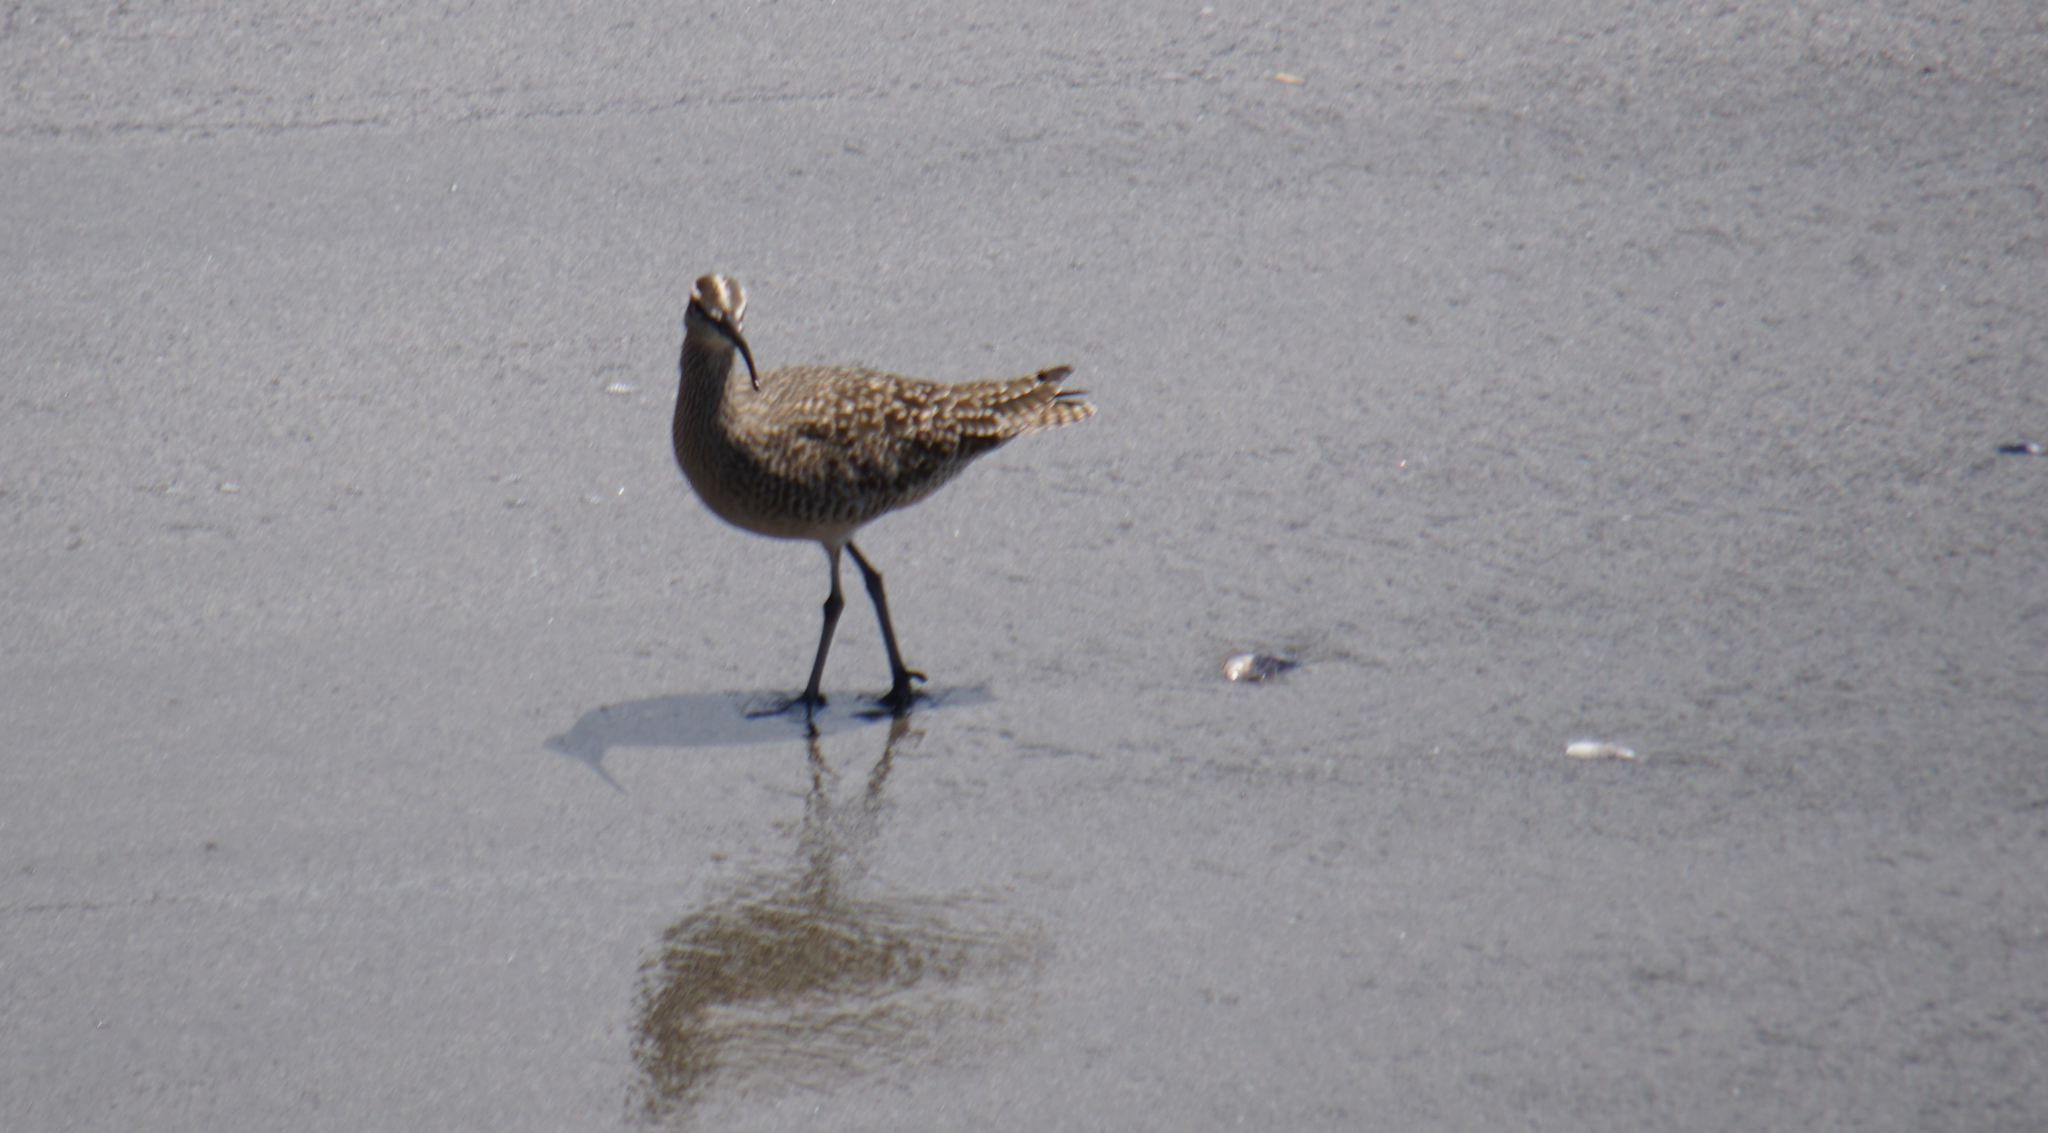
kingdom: Animalia
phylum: Chordata
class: Aves
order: Charadriiformes
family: Scolopacidae
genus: Numenius
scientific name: Numenius phaeopus
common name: Whimbrel
